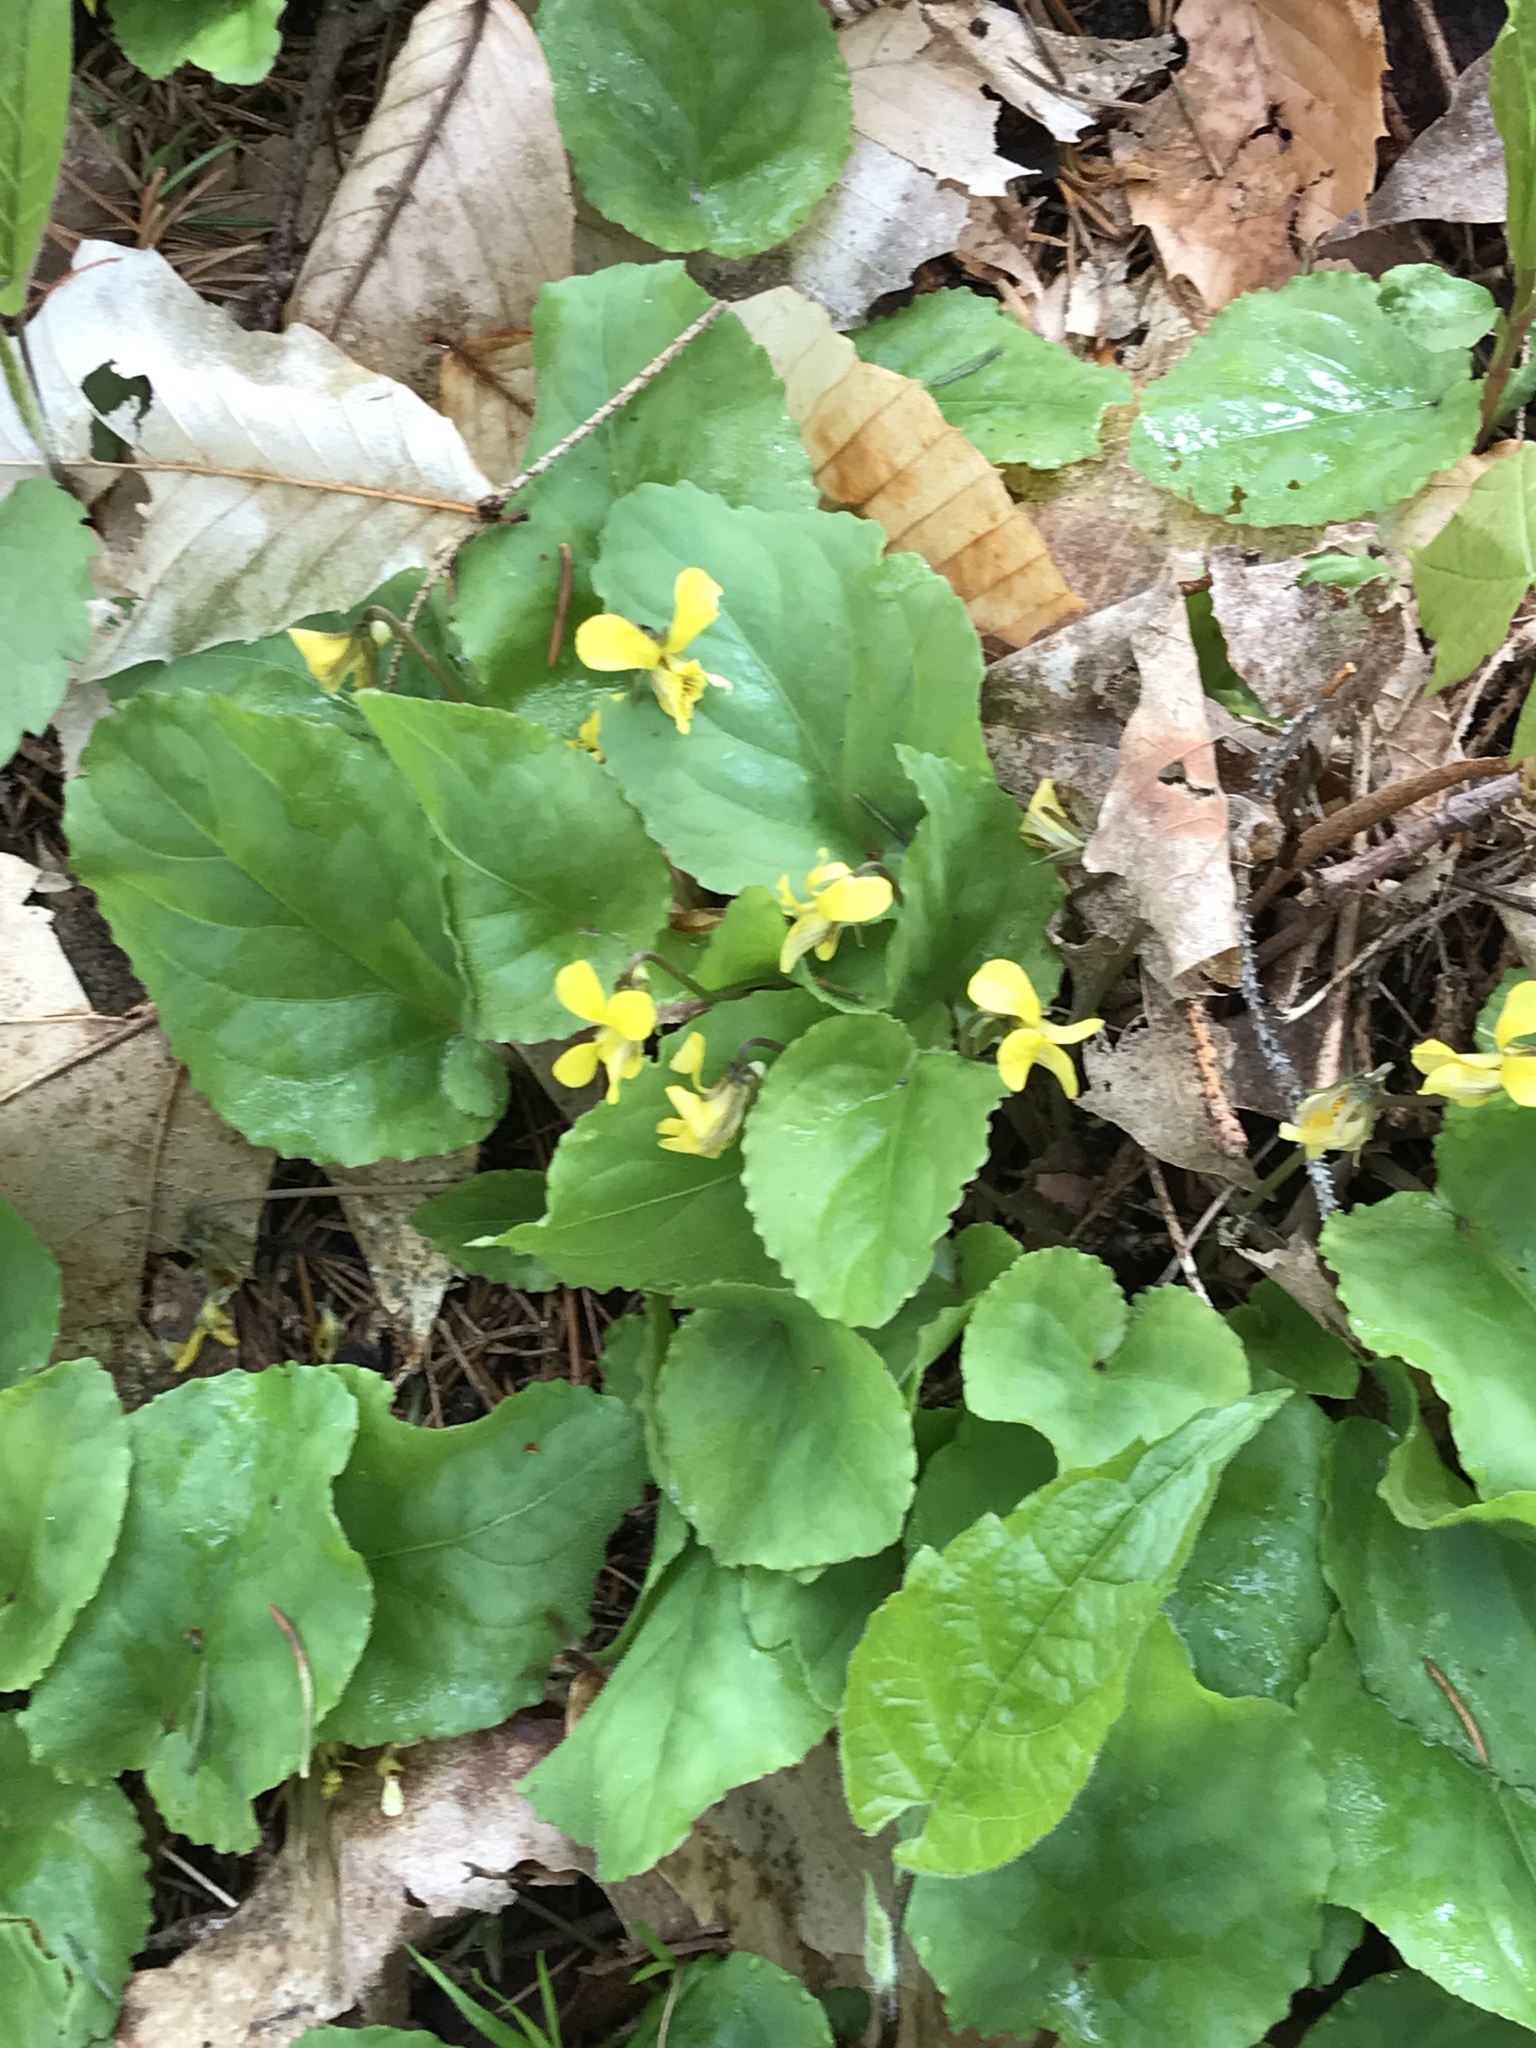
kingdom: Plantae
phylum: Tracheophyta
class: Magnoliopsida
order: Malpighiales
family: Violaceae
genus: Viola
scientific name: Viola rotundifolia
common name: Early yellow violet
